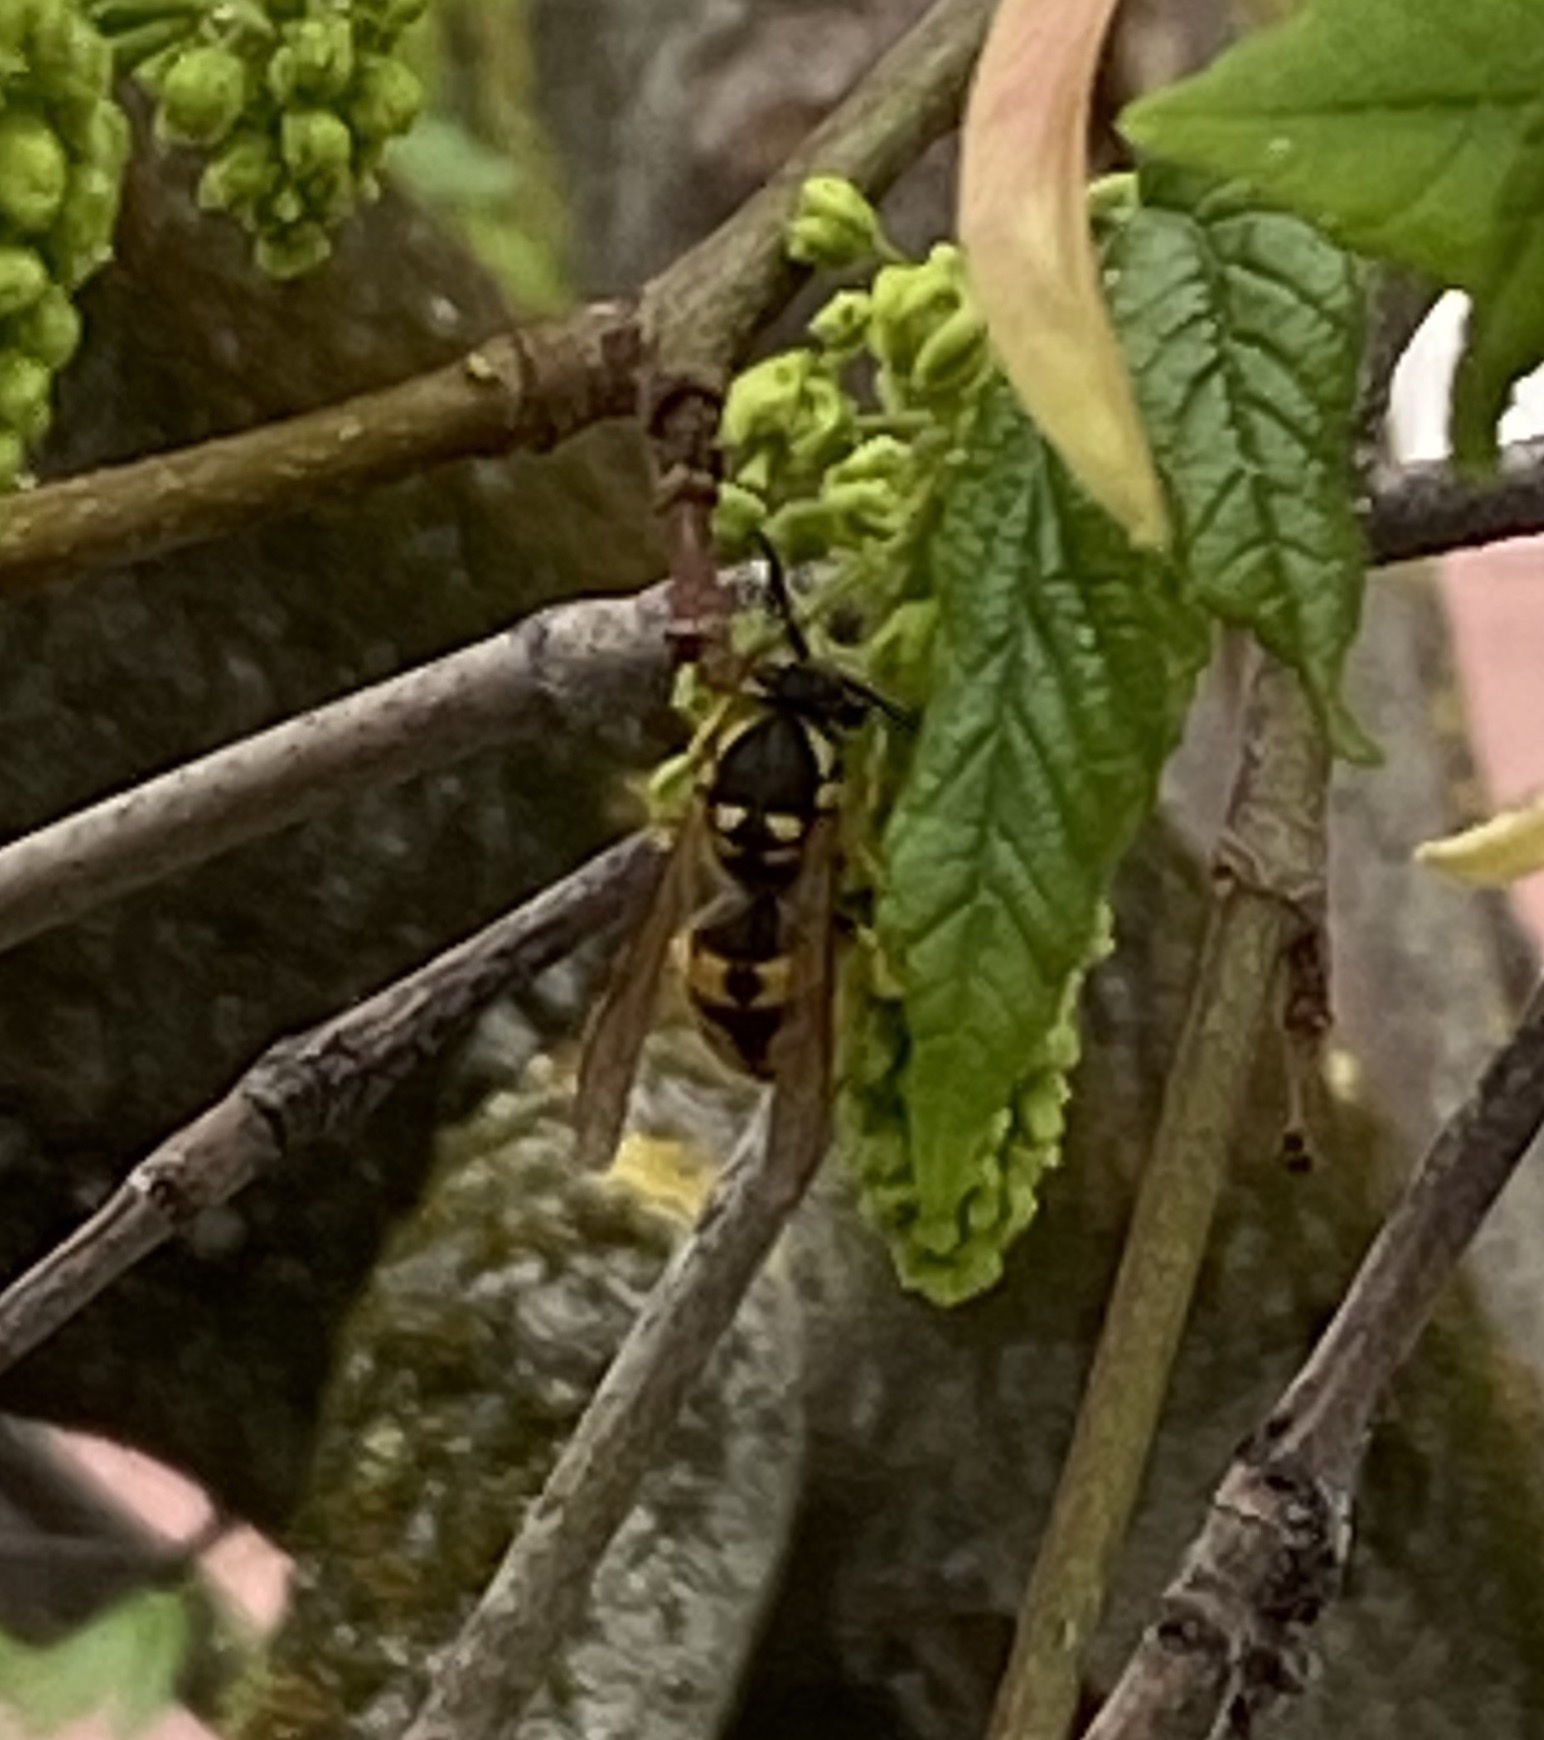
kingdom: Animalia
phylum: Arthropoda
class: Insecta
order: Hymenoptera
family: Vespidae
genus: Vespula
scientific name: Vespula germanica
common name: German wasp
